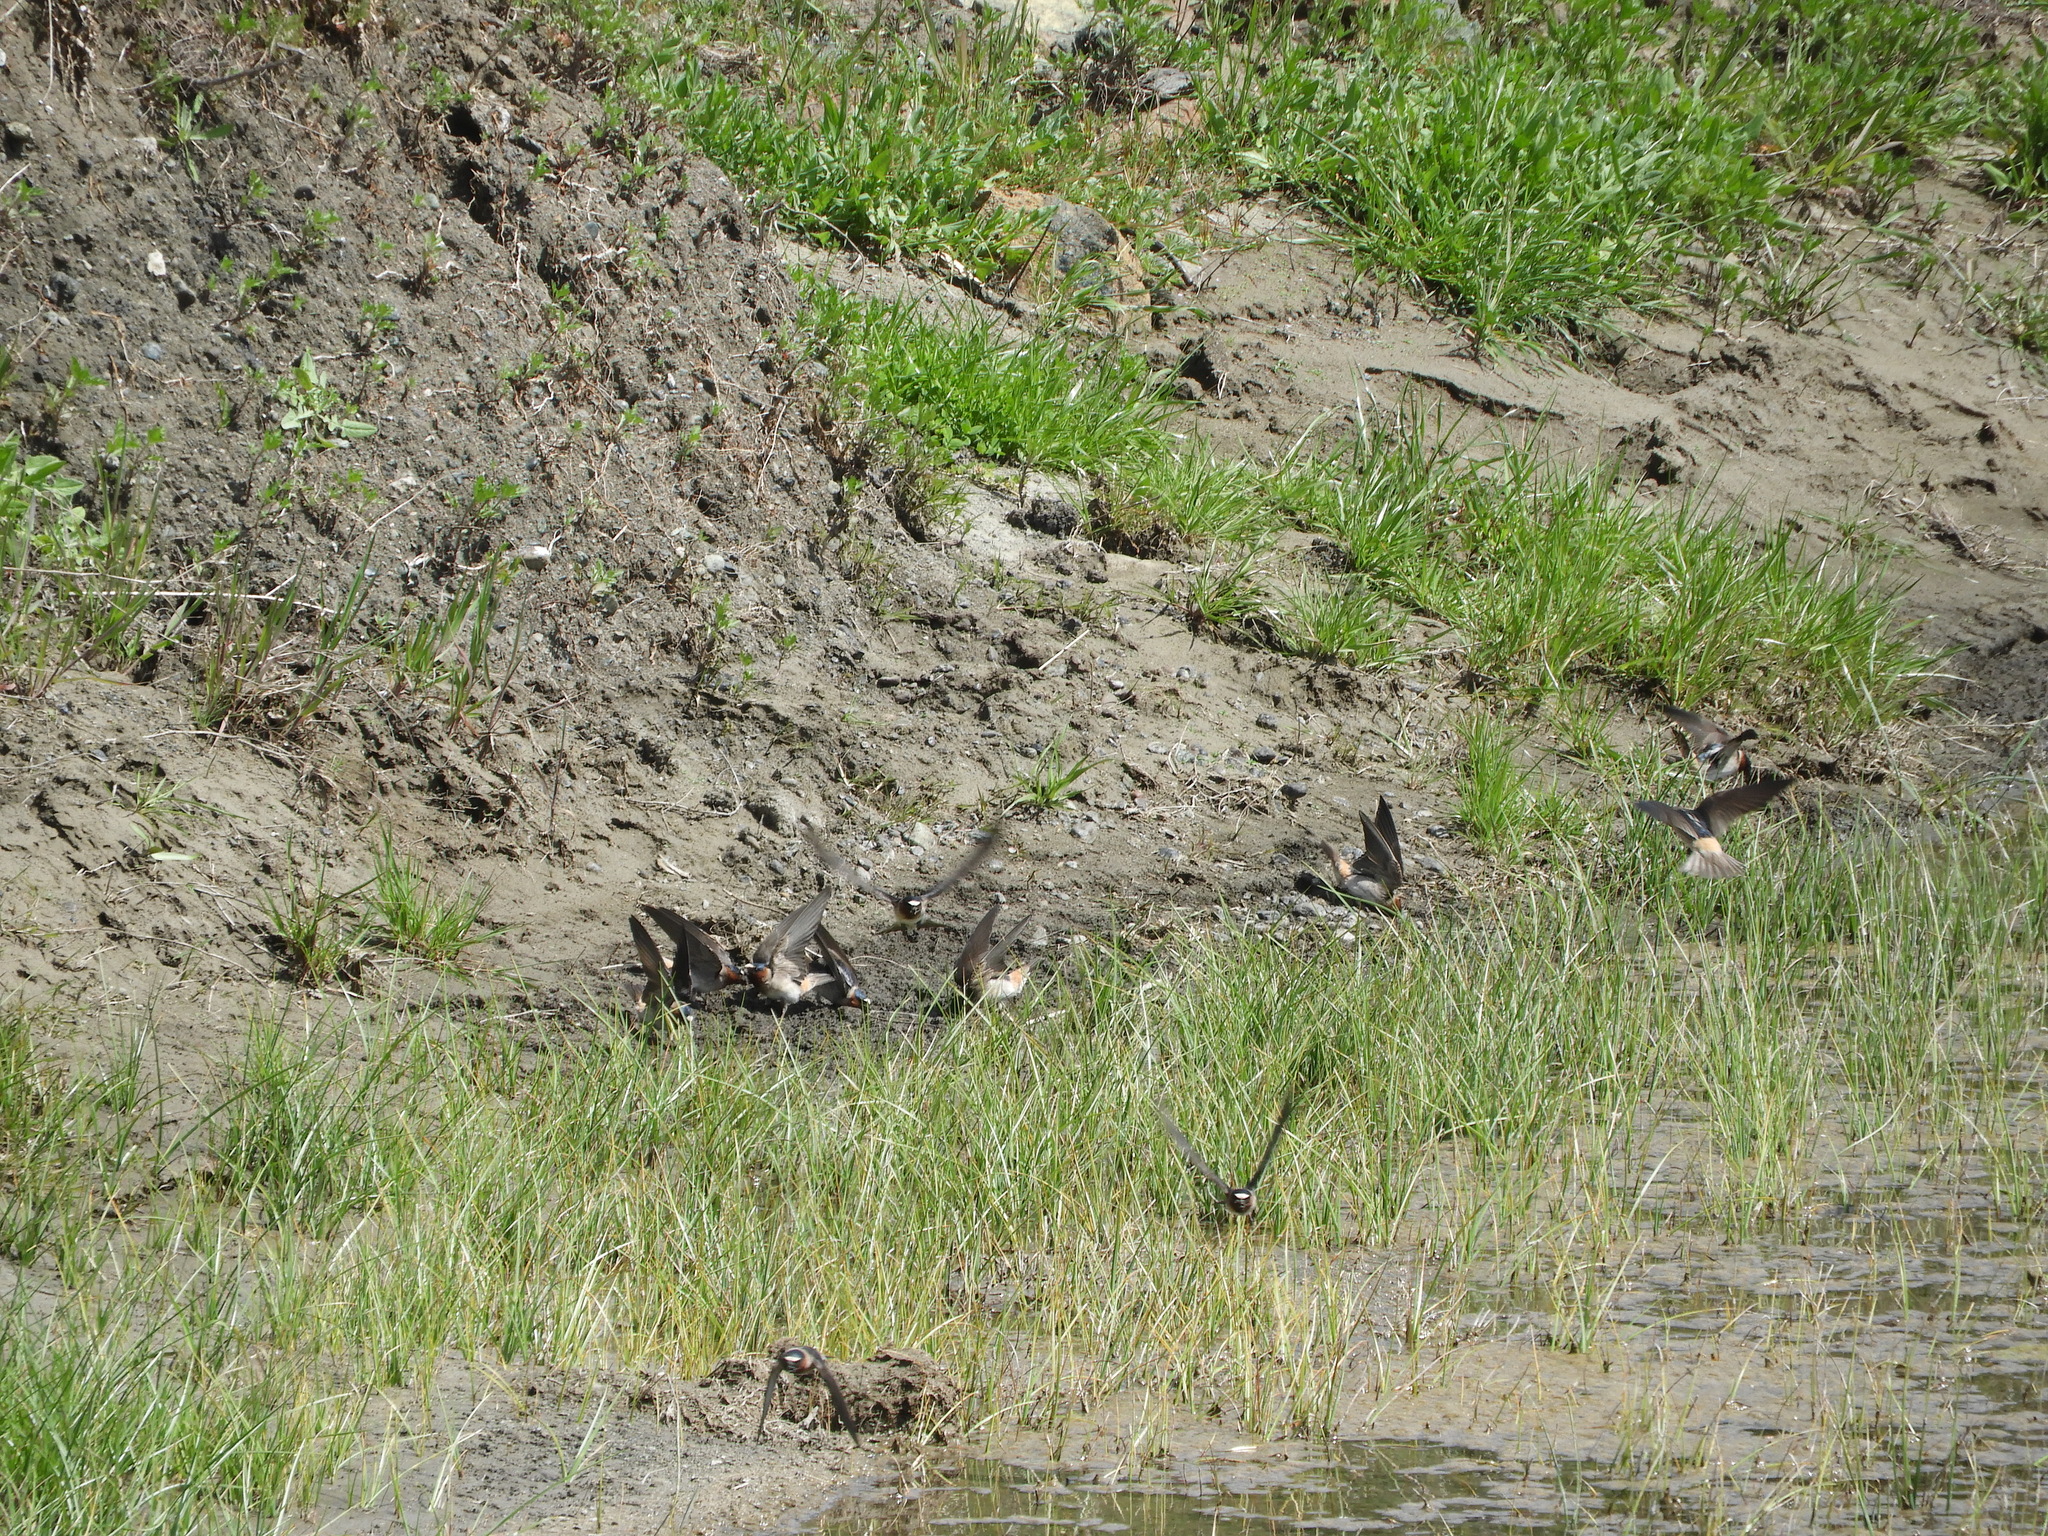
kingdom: Animalia
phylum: Chordata
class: Aves
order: Passeriformes
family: Hirundinidae
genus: Petrochelidon
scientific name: Petrochelidon pyrrhonota
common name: American cliff swallow
